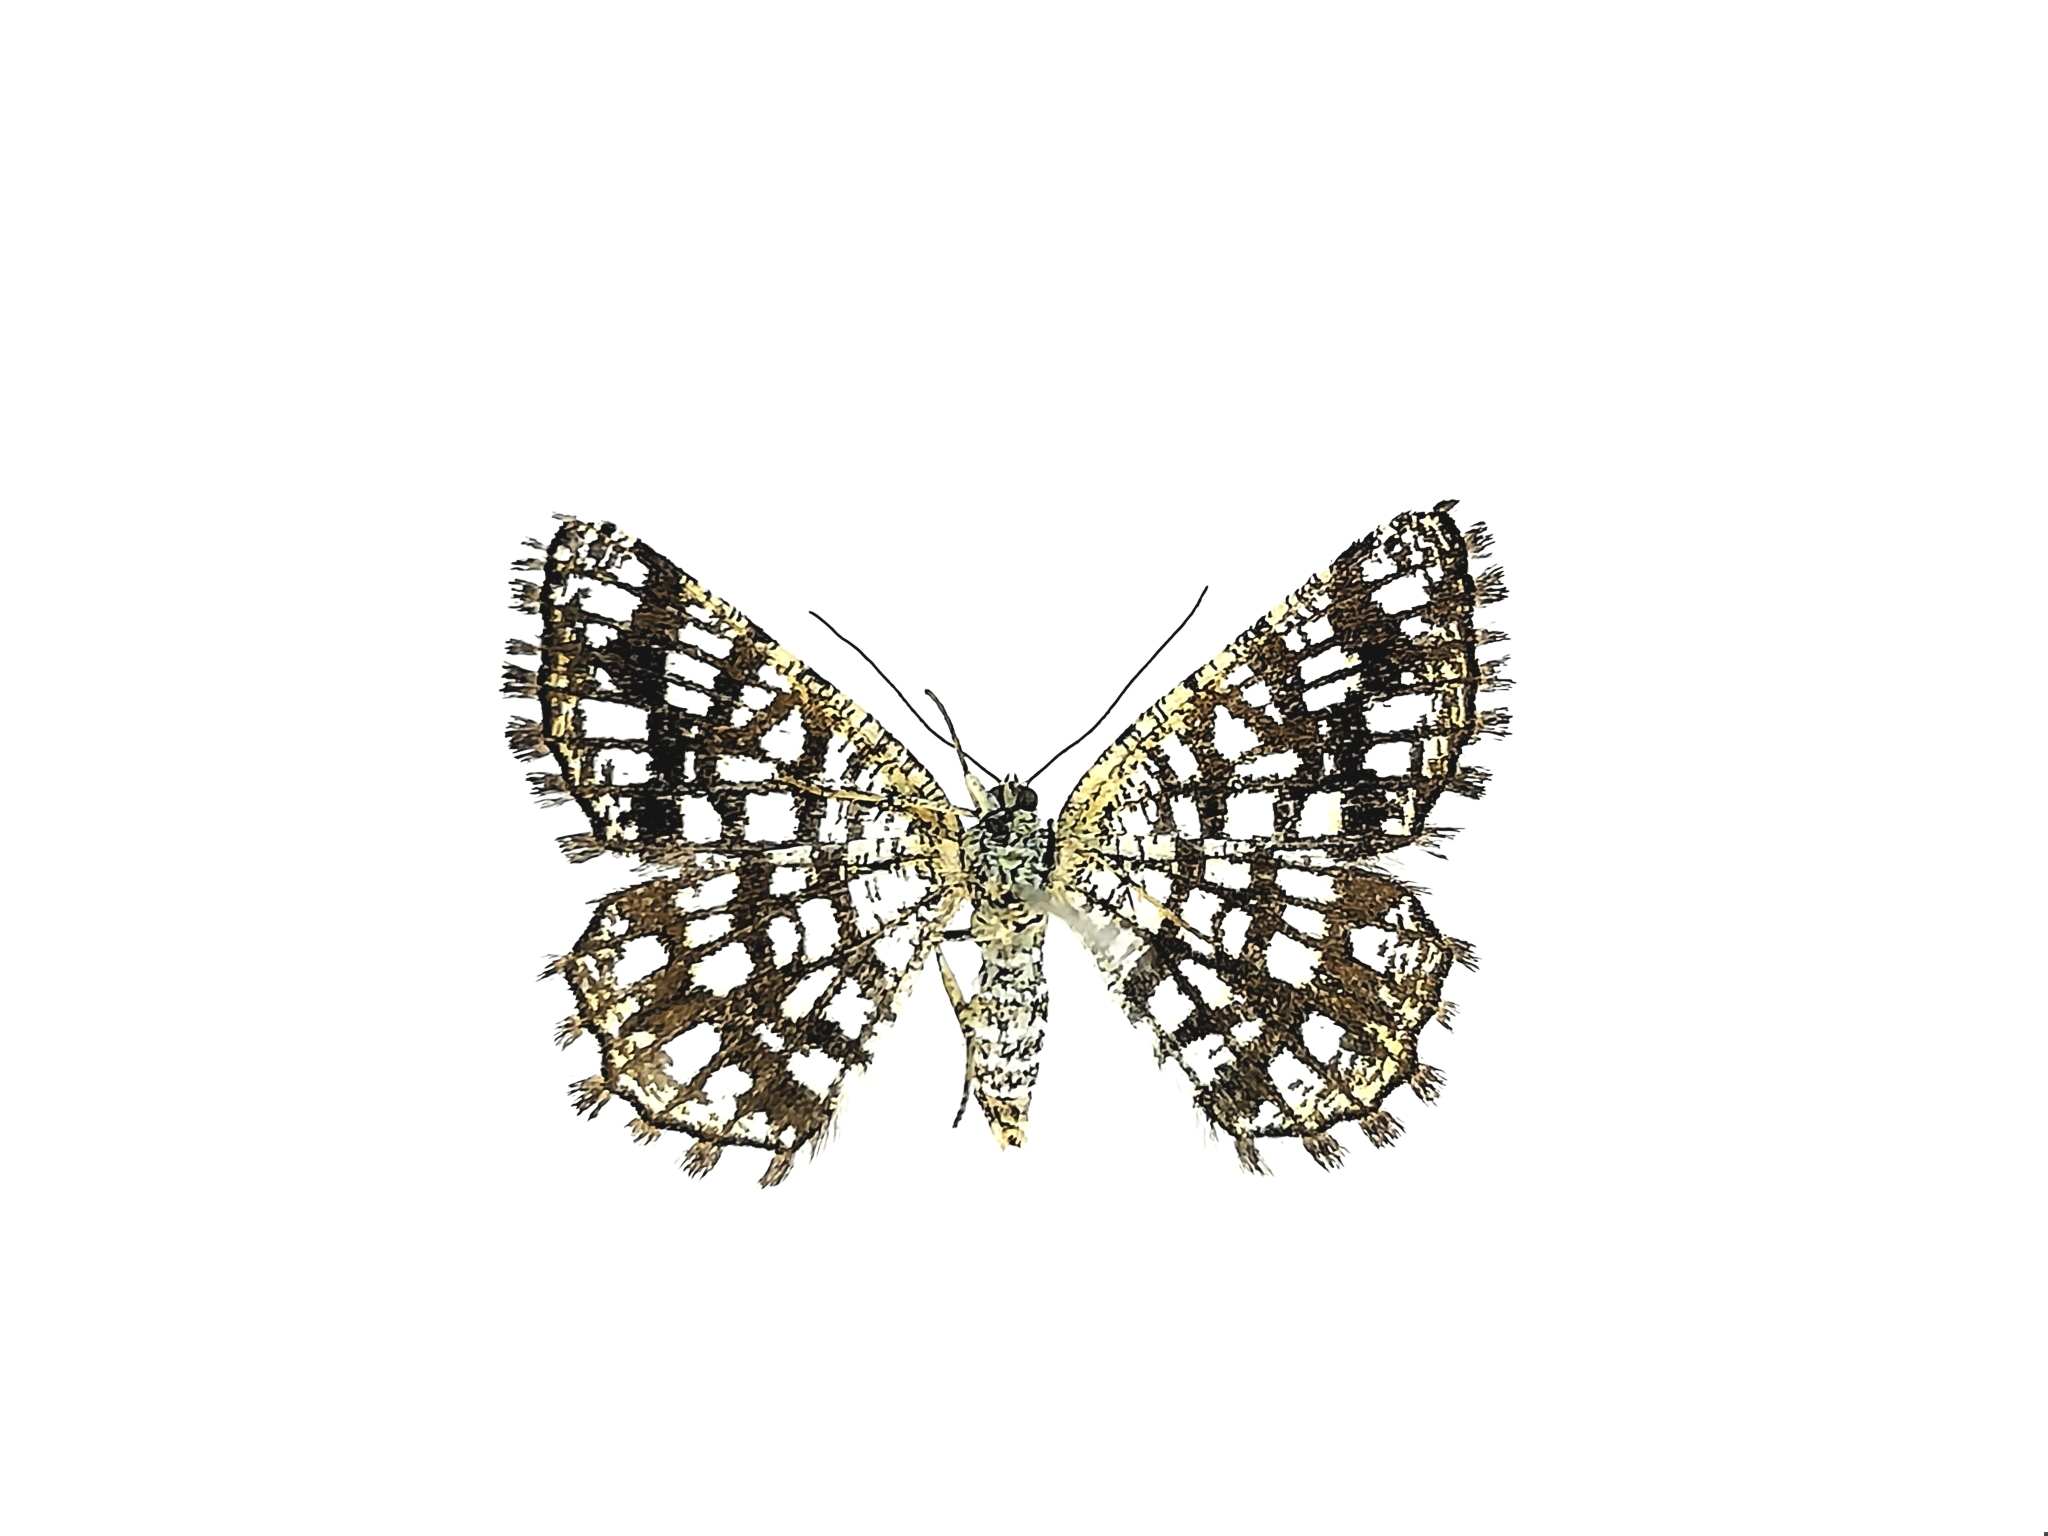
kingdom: Animalia
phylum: Arthropoda
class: Insecta
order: Lepidoptera
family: Geometridae
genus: Chiasmia
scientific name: Chiasmia clathrata
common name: Latticed heath
